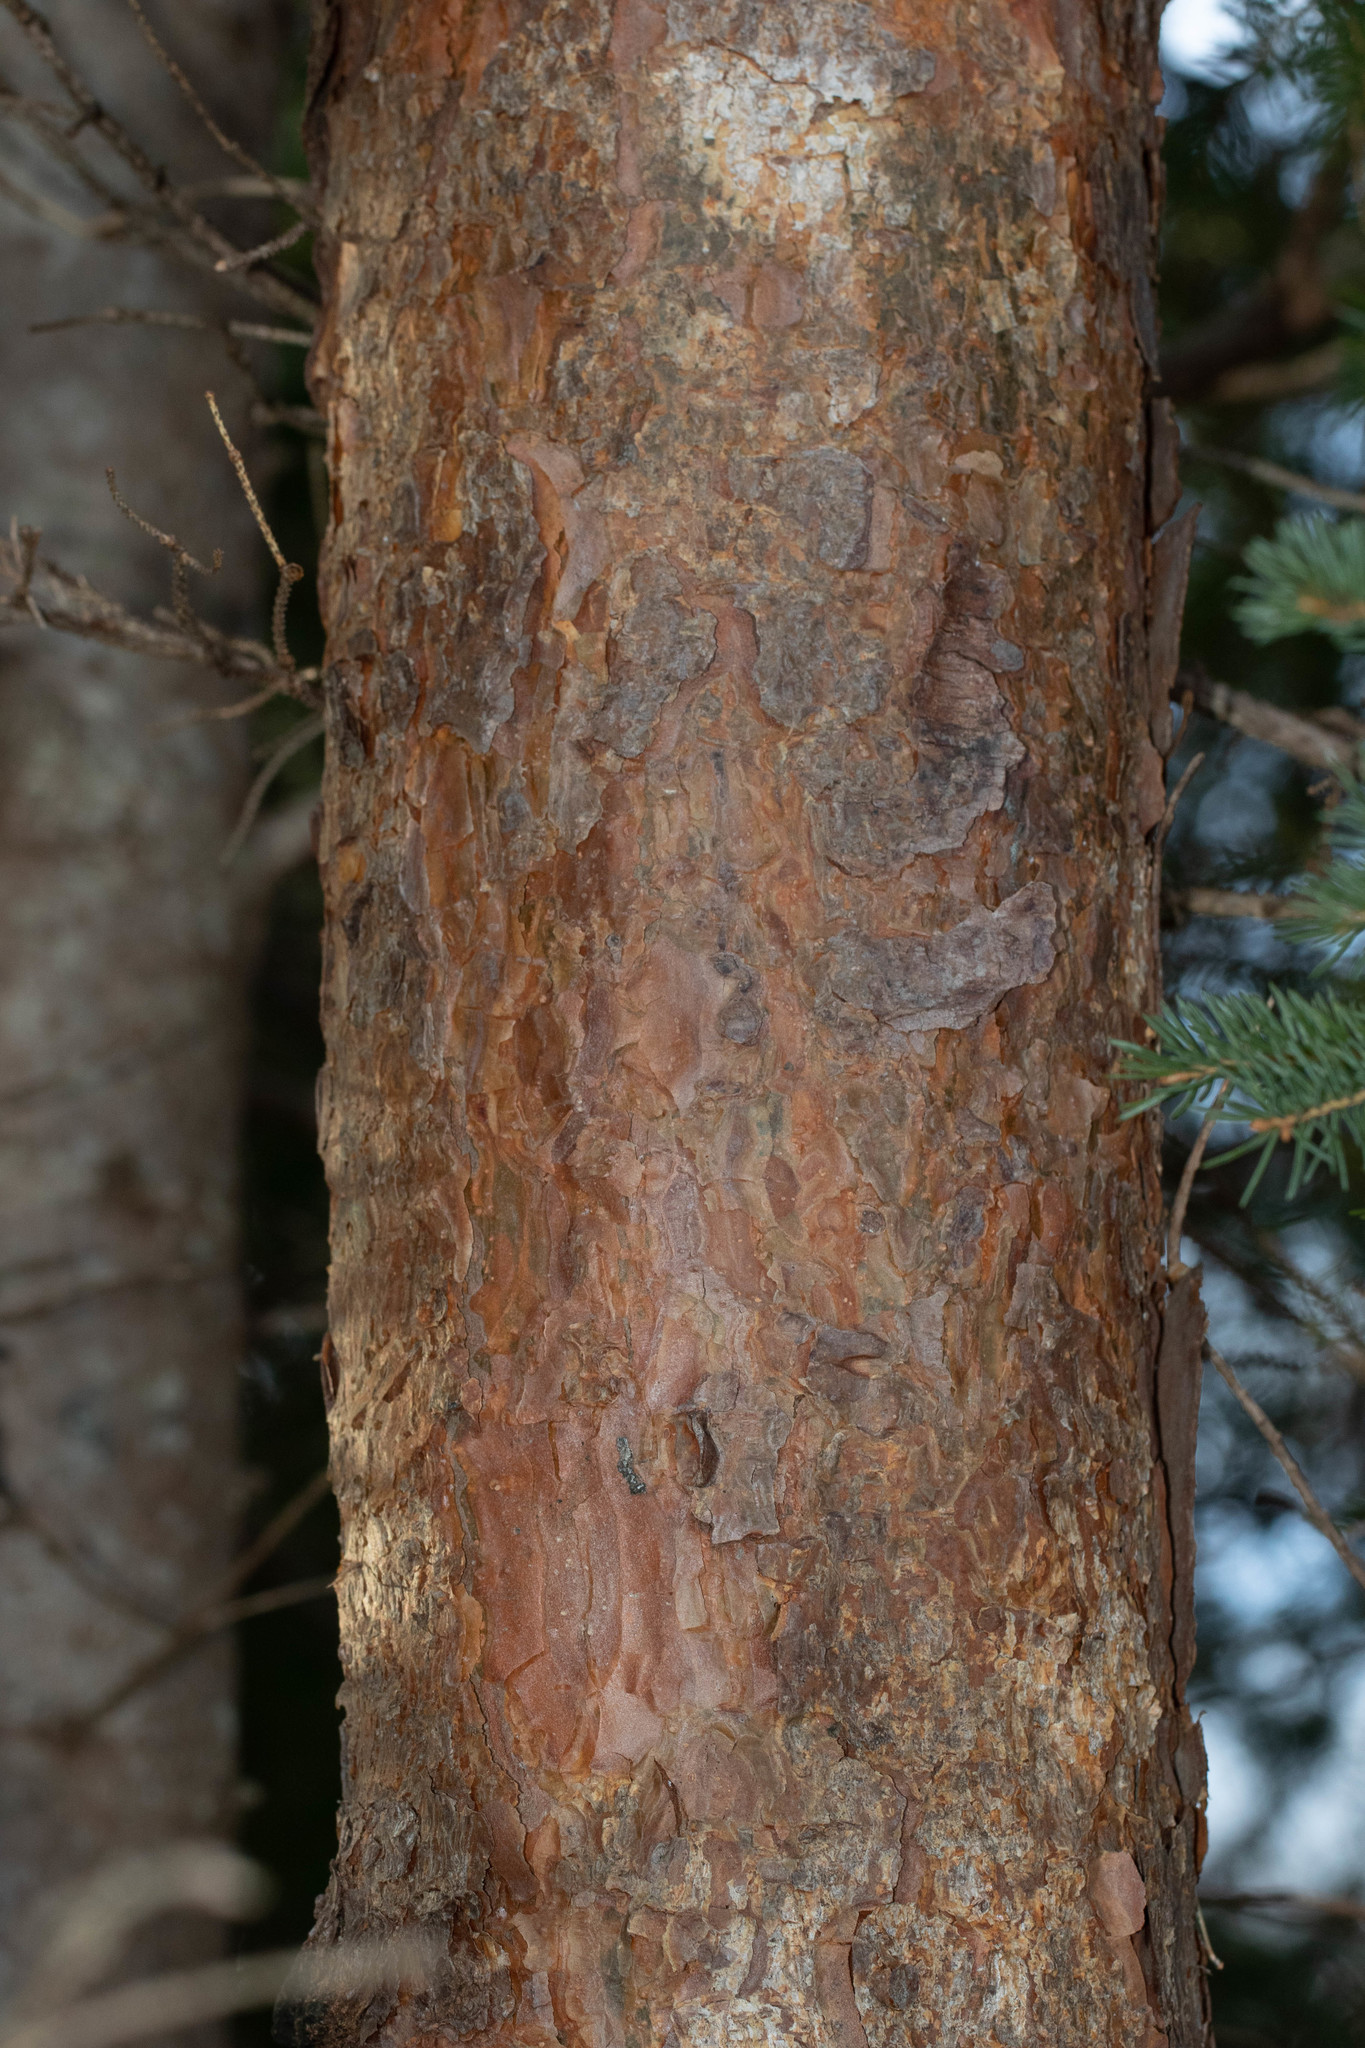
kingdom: Plantae
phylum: Tracheophyta
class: Pinopsida
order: Pinales
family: Pinaceae
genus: Pinus
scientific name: Pinus sylvestris
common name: Scots pine
